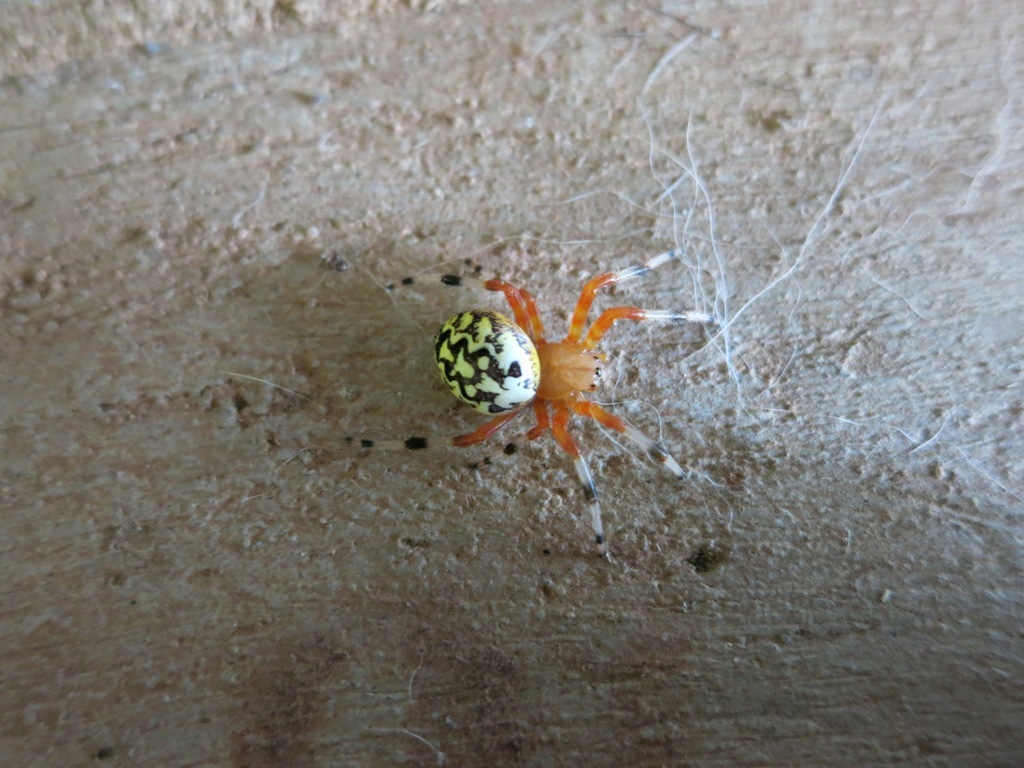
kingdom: Animalia
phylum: Arthropoda
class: Arachnida
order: Araneae
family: Araneidae
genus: Araneus
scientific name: Araneus marmoreus
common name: Marbled orbweaver
